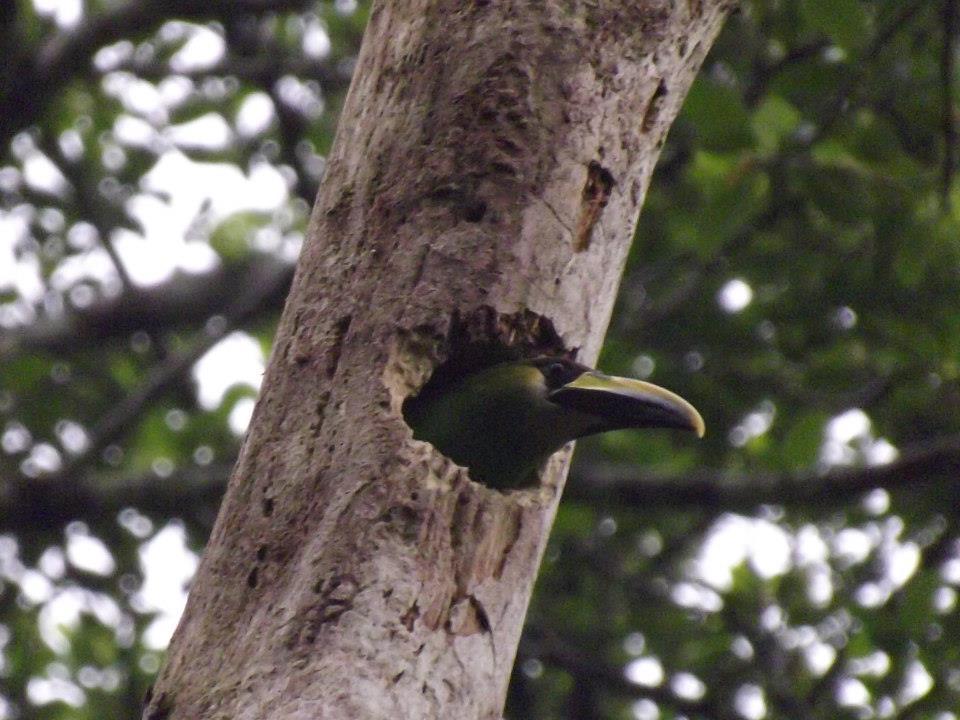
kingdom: Animalia
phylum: Chordata
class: Aves
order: Piciformes
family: Ramphastidae
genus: Aulacorhynchus
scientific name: Aulacorhynchus prasinus
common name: Emerald toucanet
